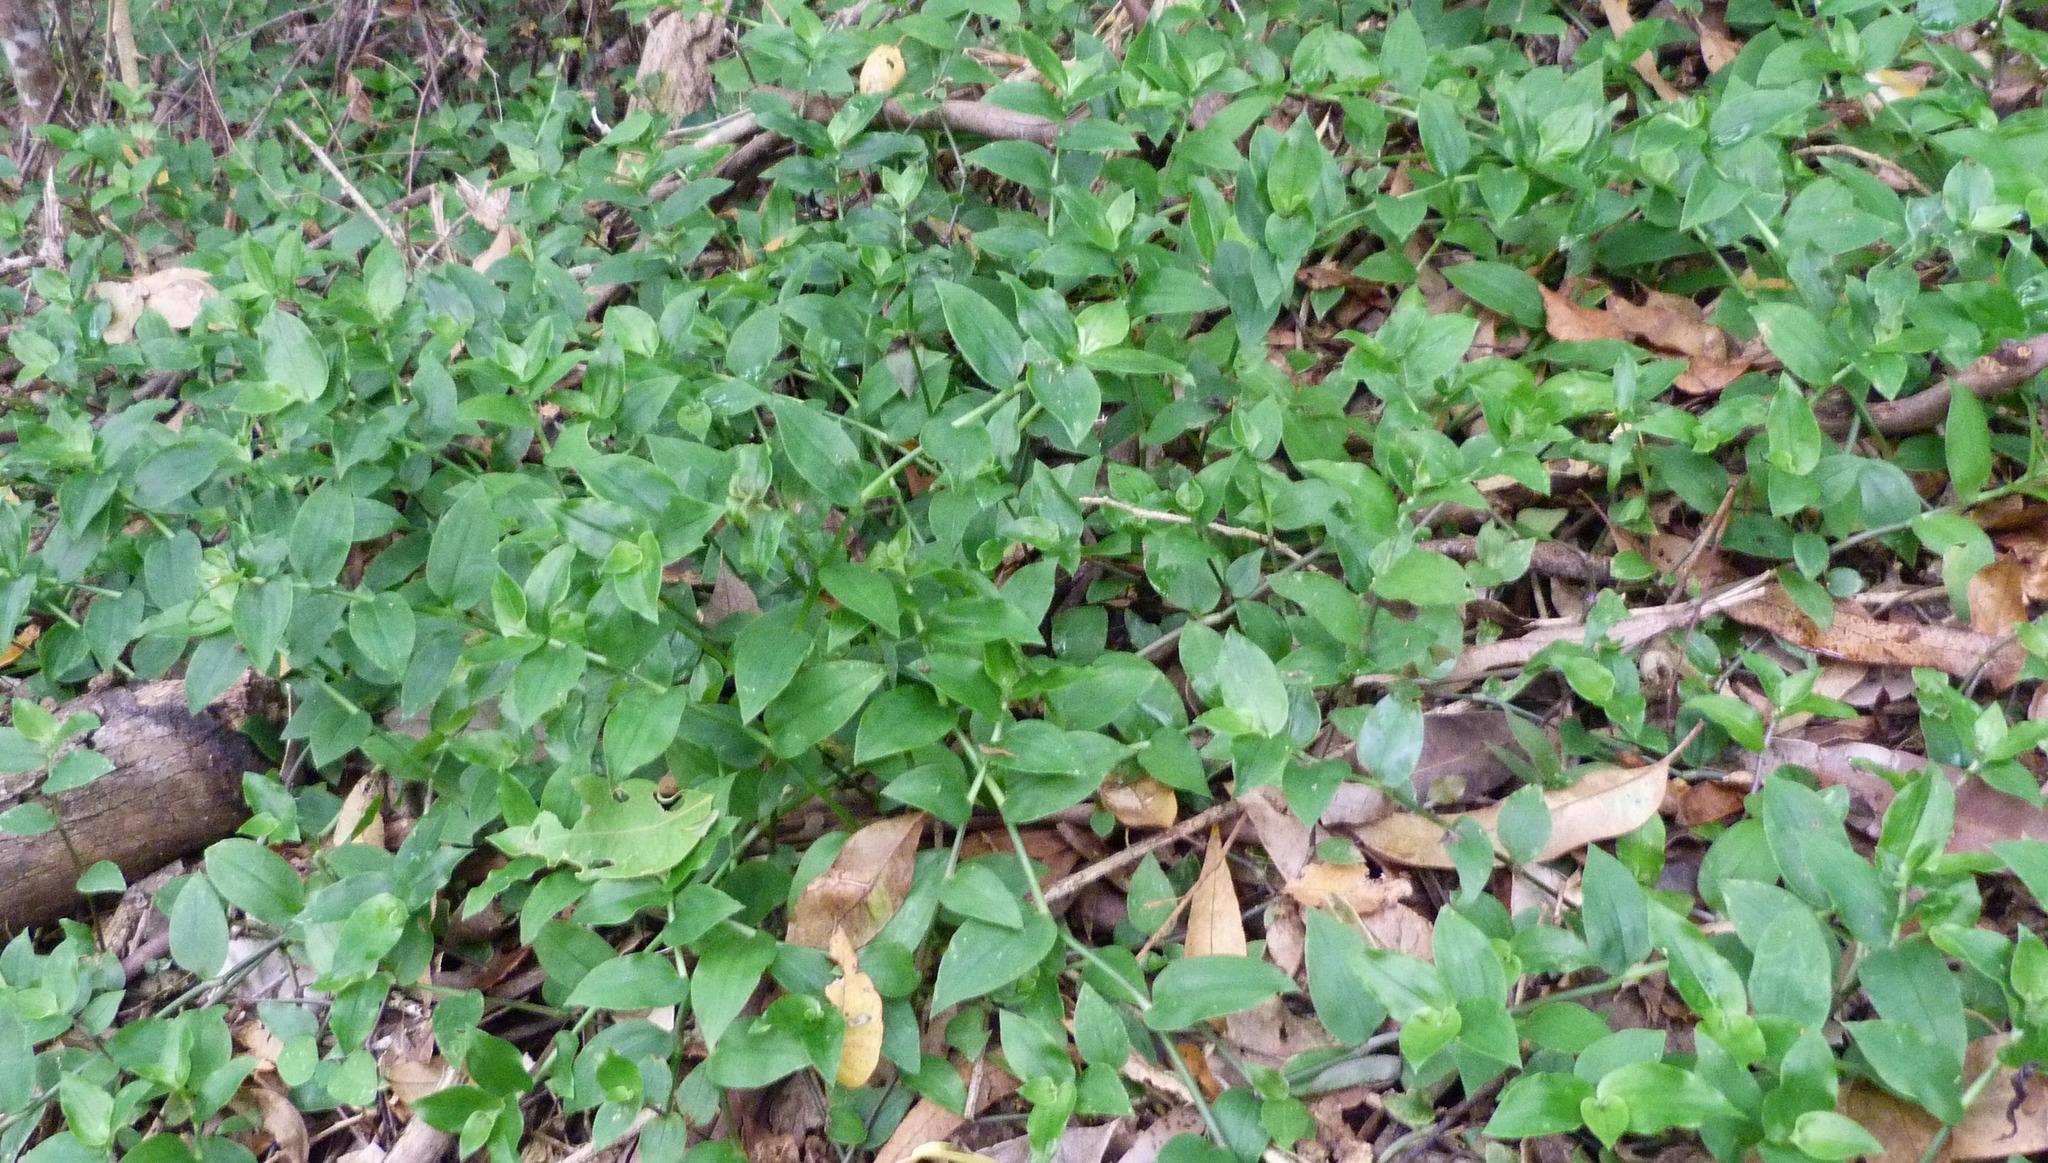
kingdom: Plantae
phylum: Tracheophyta
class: Liliopsida
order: Commelinales
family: Commelinaceae
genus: Tradescantia
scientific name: Tradescantia fluminensis
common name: Wandering-jew
